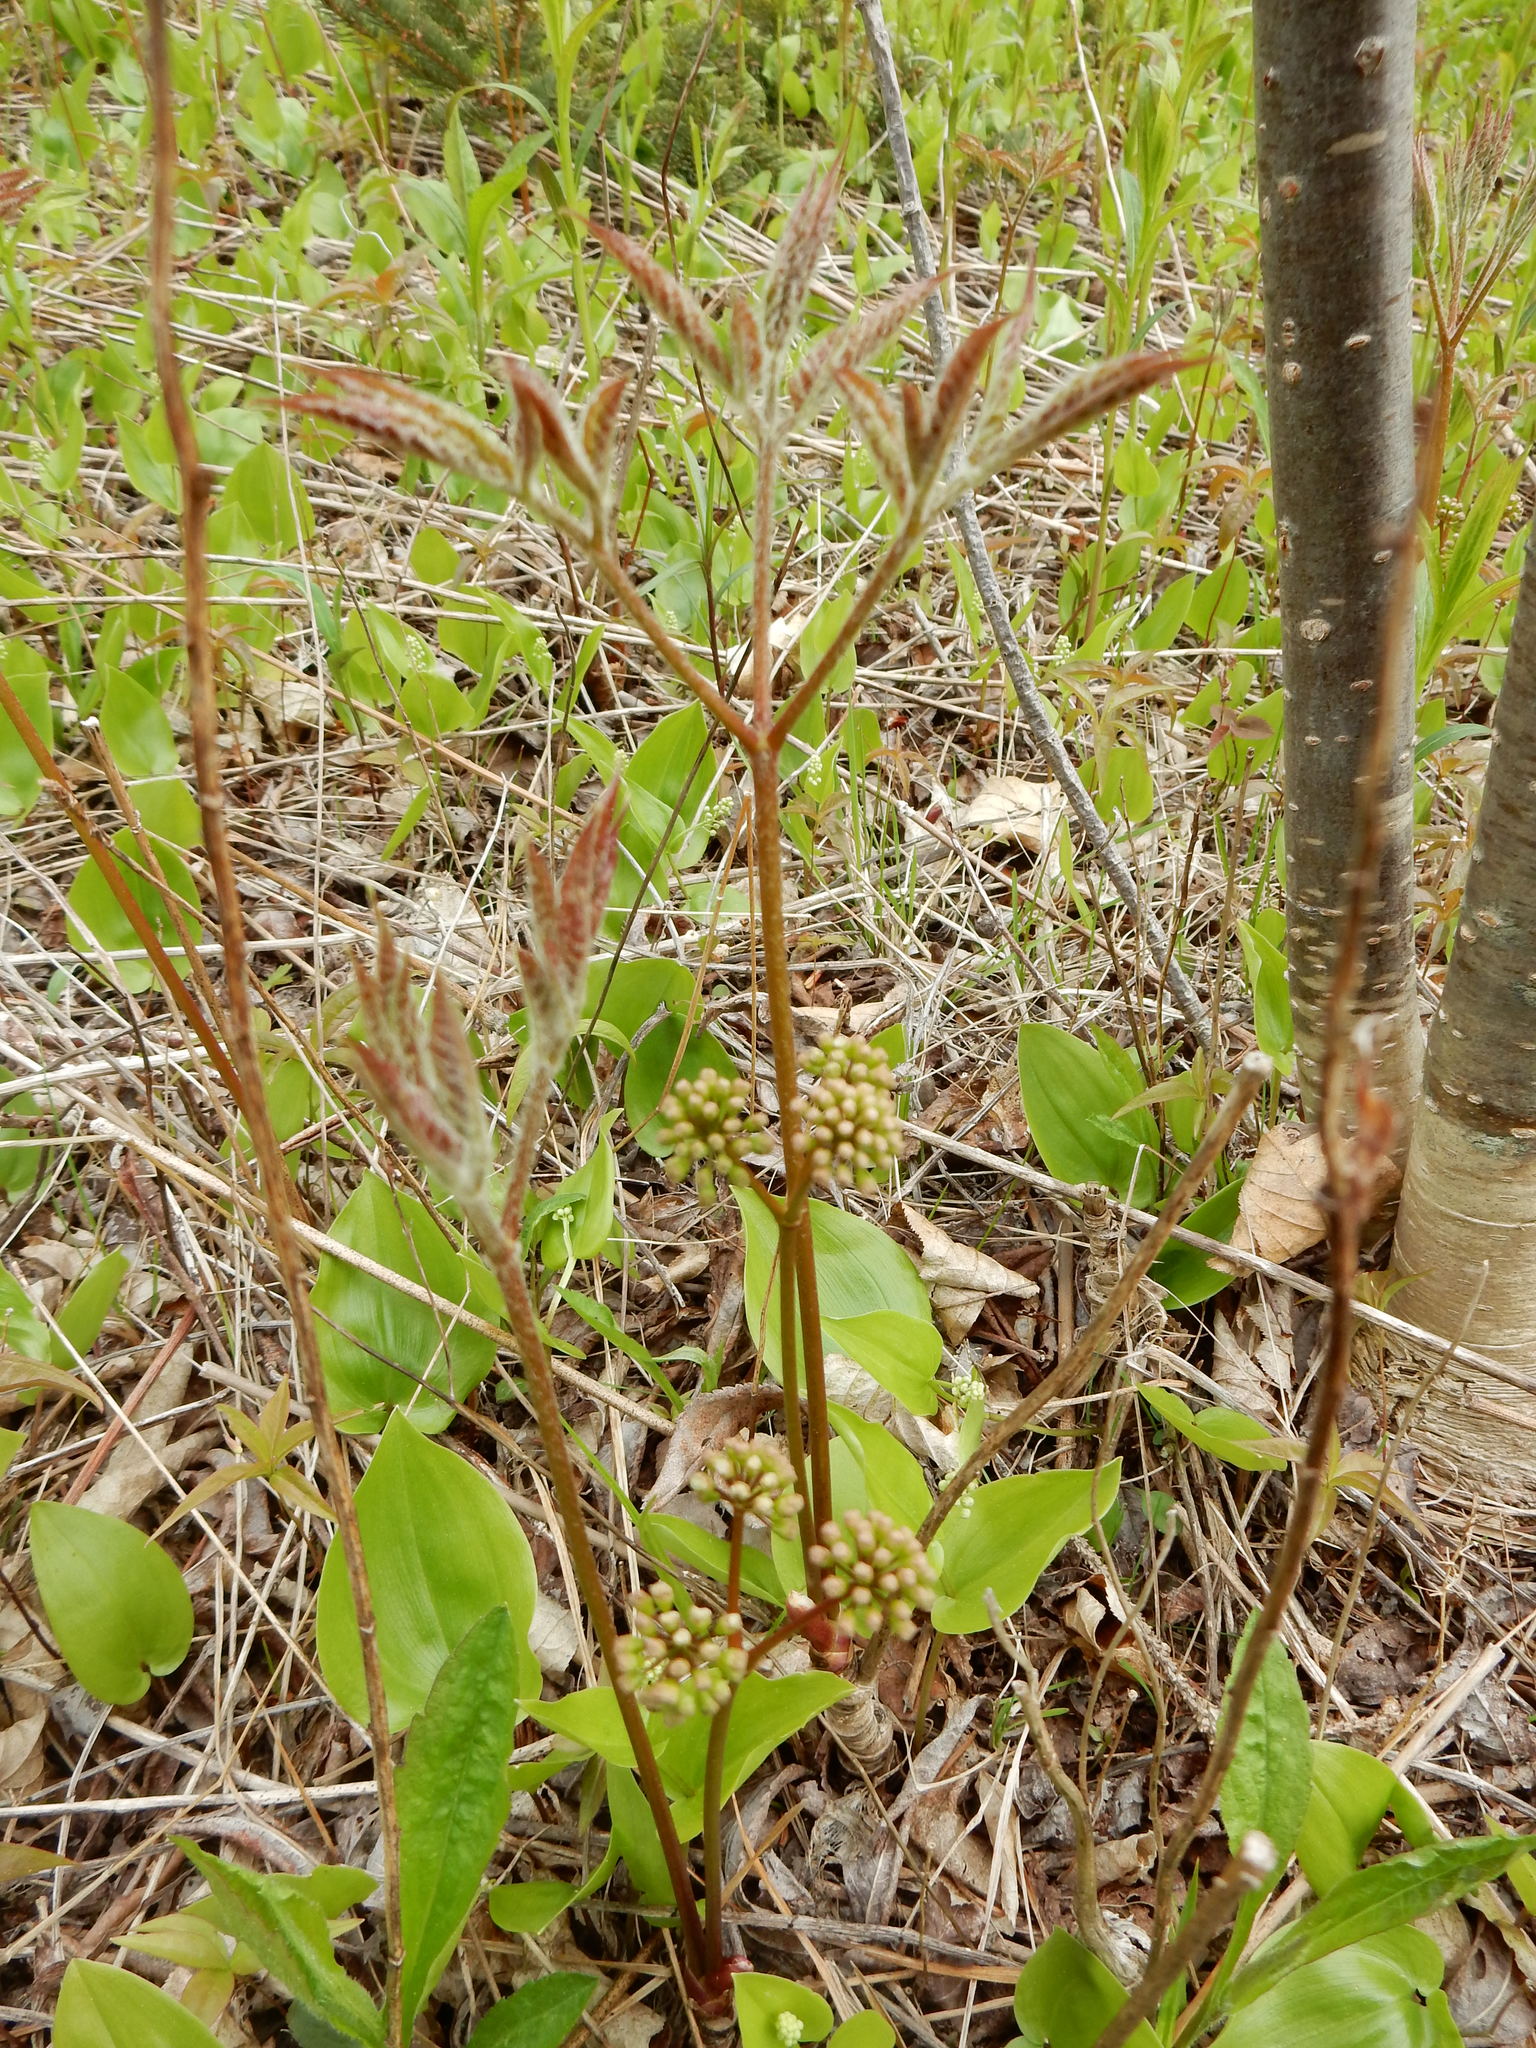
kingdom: Plantae
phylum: Tracheophyta
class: Magnoliopsida
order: Apiales
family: Araliaceae
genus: Aralia
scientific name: Aralia nudicaulis
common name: Wild sarsaparilla
